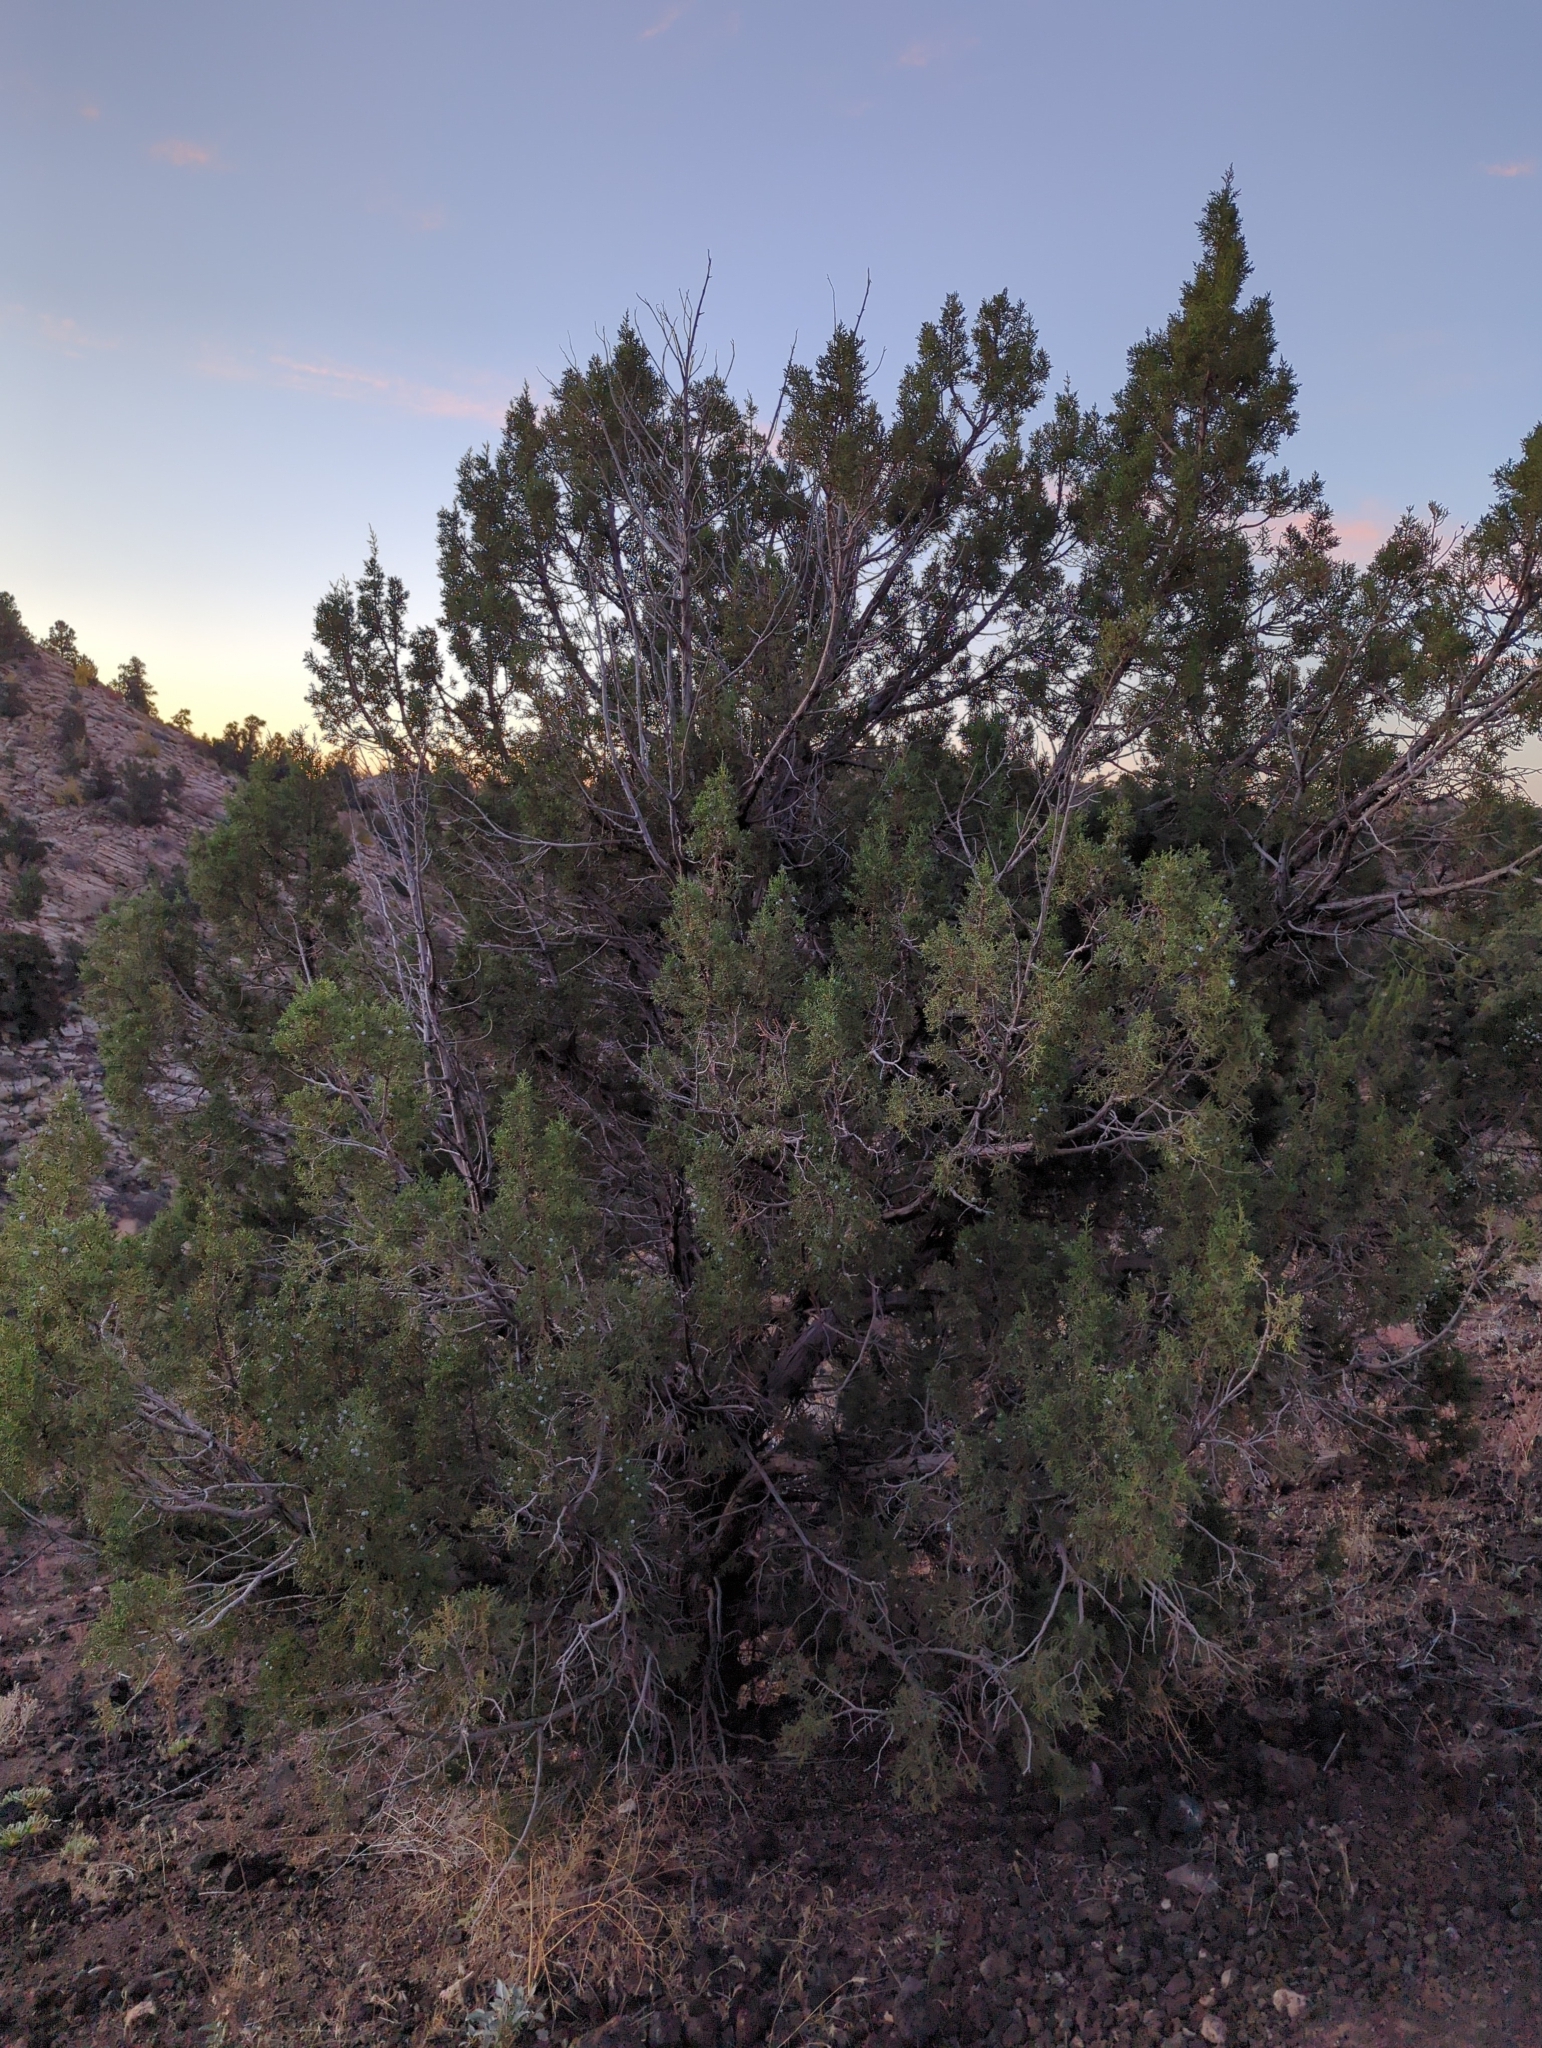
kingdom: Plantae
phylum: Tracheophyta
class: Pinopsida
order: Pinales
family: Cupressaceae
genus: Juniperus
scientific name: Juniperus osteosperma
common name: Utah juniper
